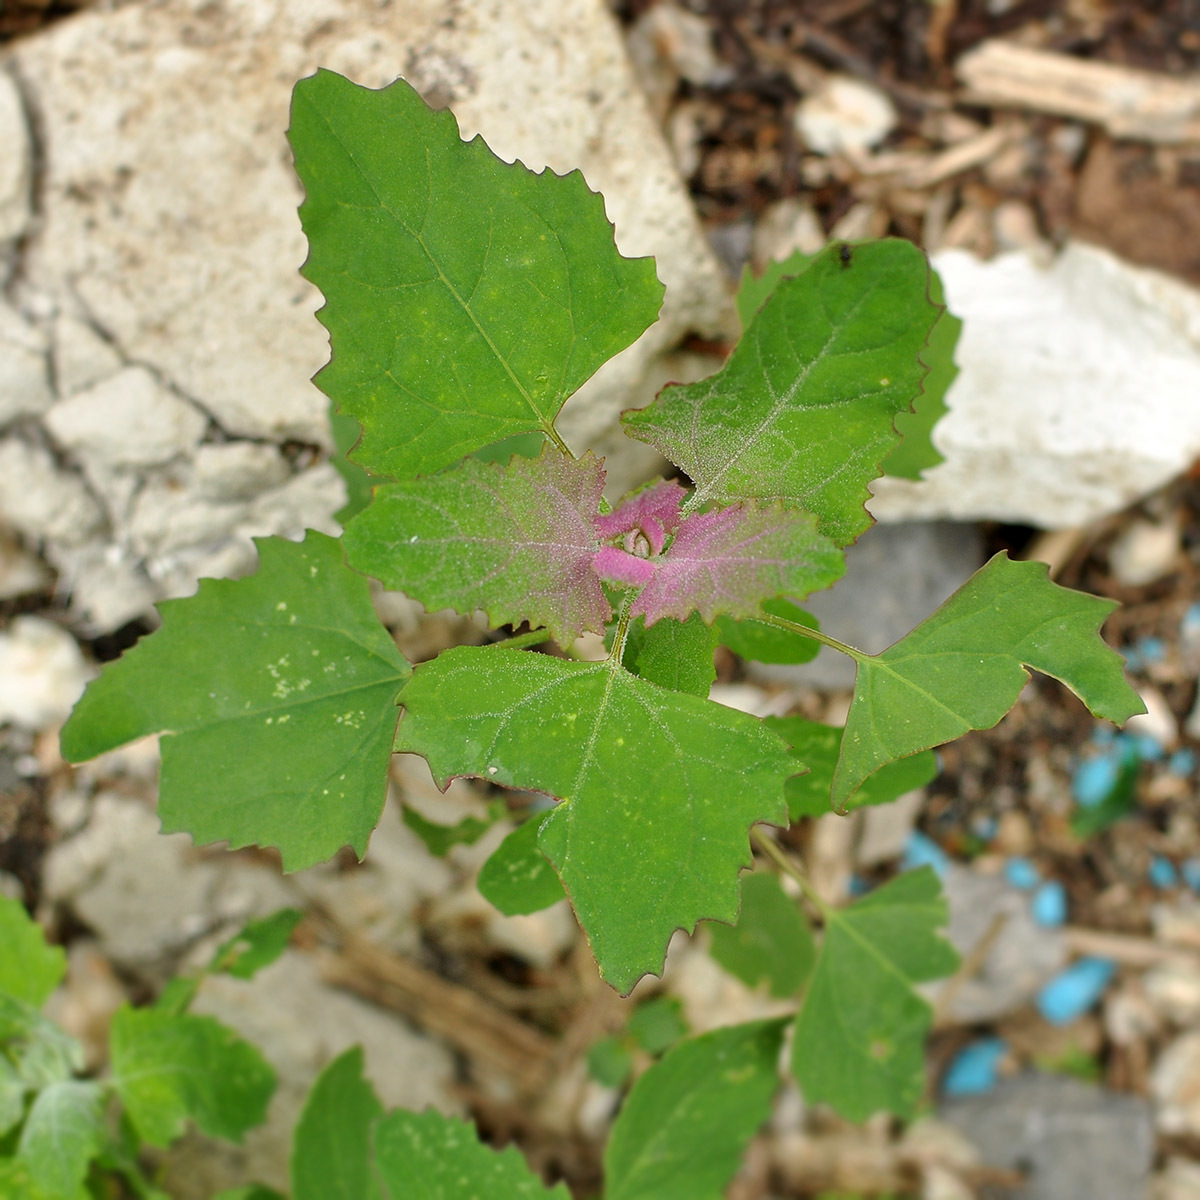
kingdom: Plantae
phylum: Tracheophyta
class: Magnoliopsida
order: Caryophyllales
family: Amaranthaceae
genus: Chenopodium
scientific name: Chenopodium album
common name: Fat-hen
